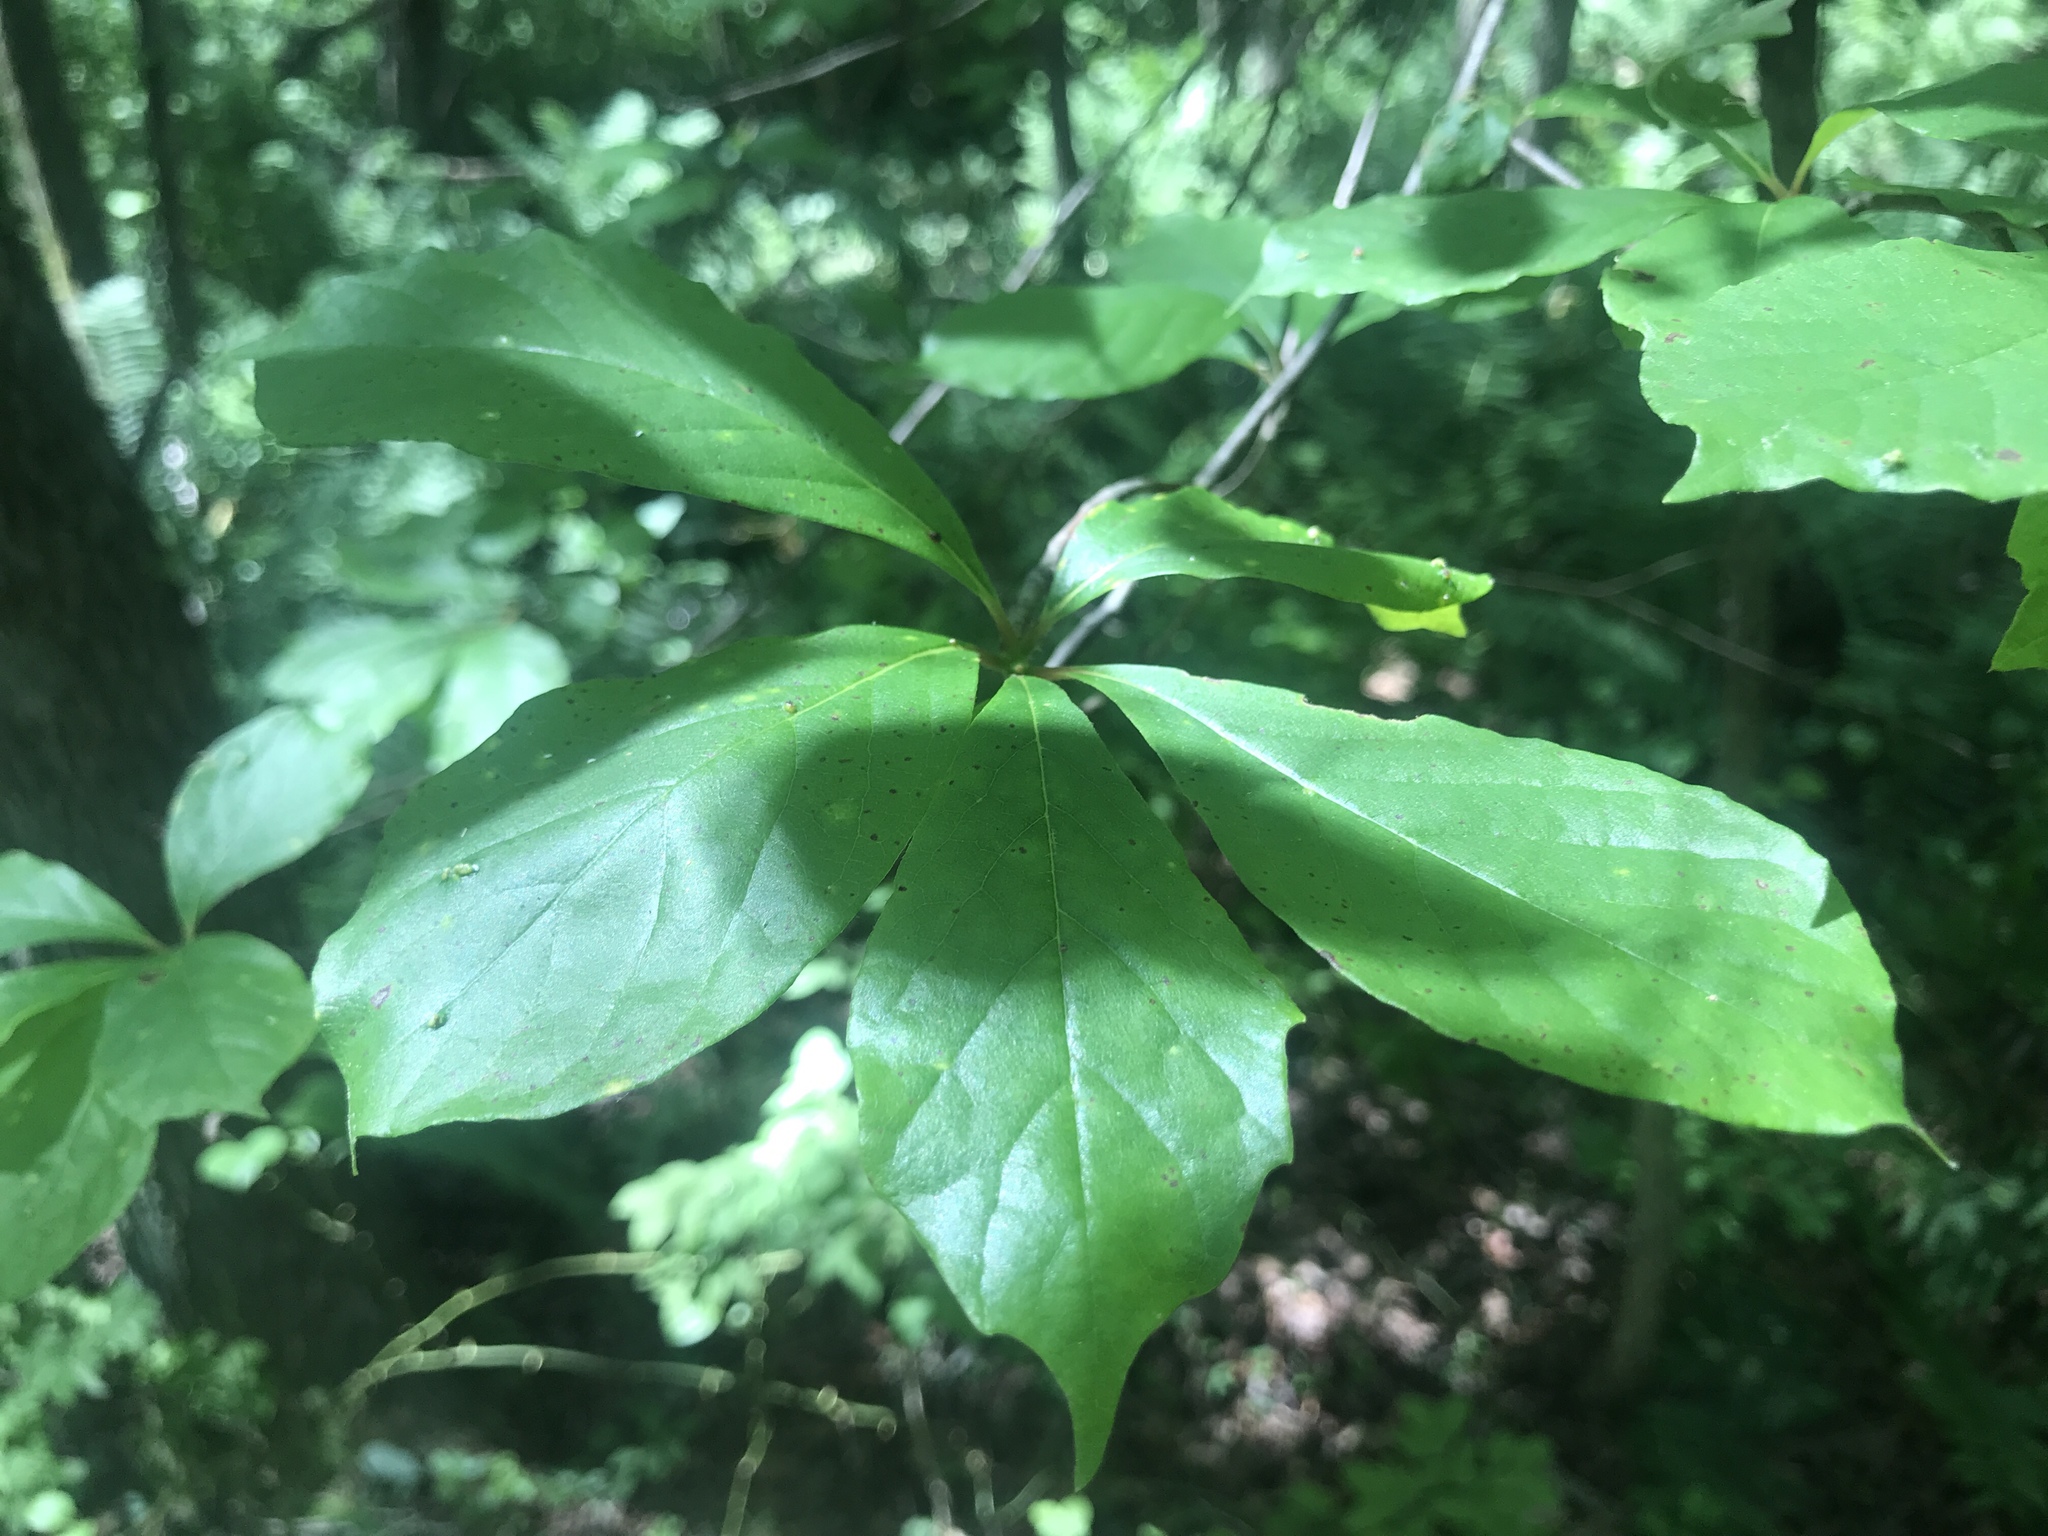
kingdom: Plantae
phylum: Tracheophyta
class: Magnoliopsida
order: Cornales
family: Nyssaceae
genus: Nyssa
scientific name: Nyssa sylvatica
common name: Black tupelo
